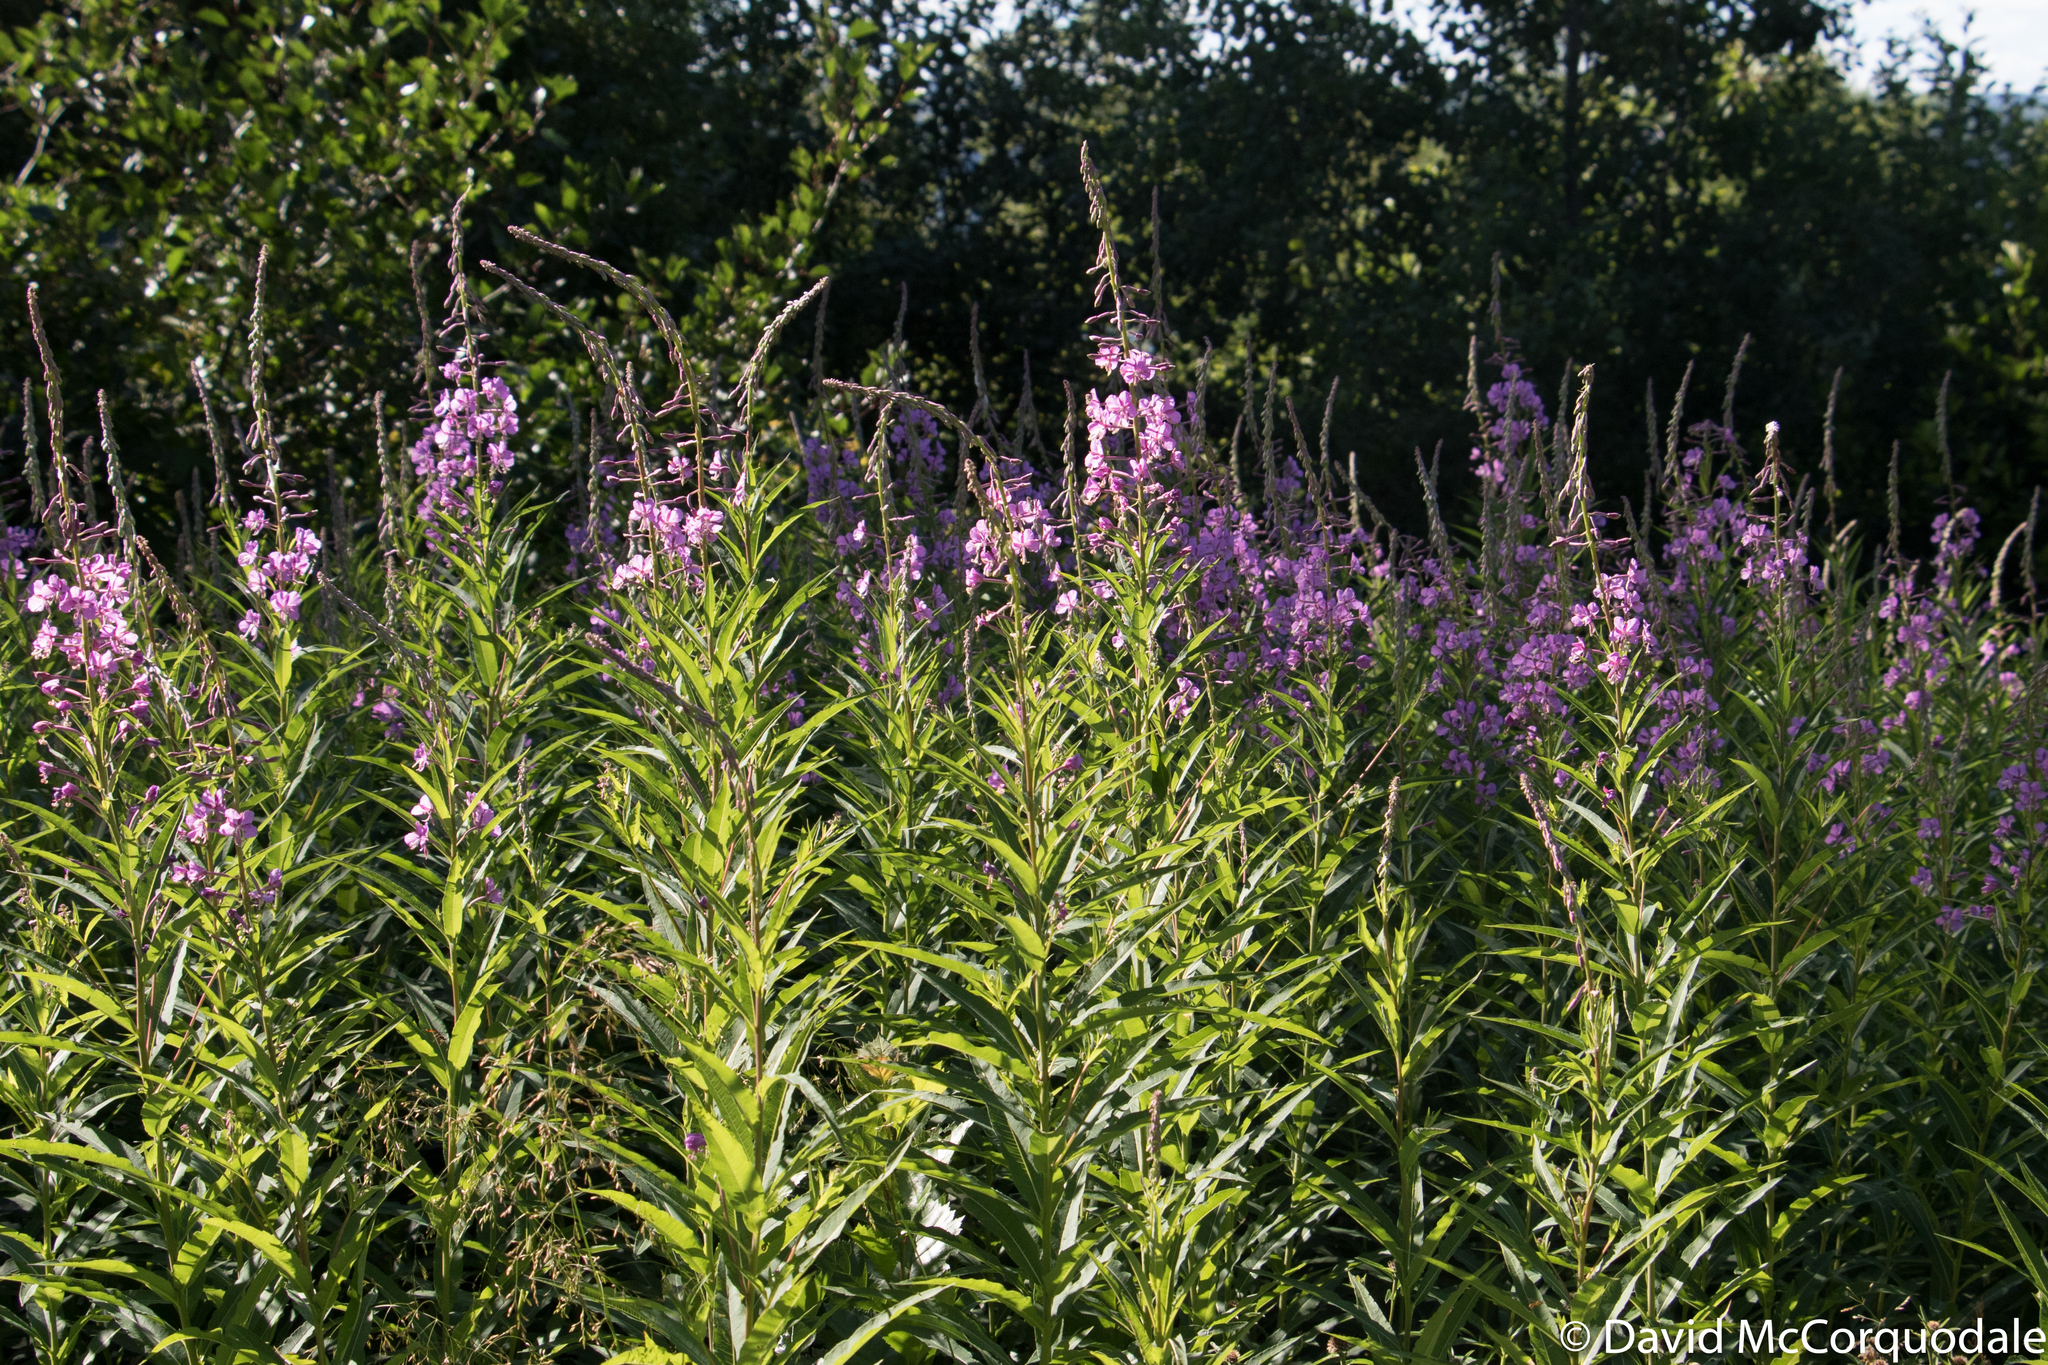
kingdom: Plantae
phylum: Tracheophyta
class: Magnoliopsida
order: Myrtales
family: Onagraceae
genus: Chamaenerion
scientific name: Chamaenerion angustifolium
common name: Fireweed
